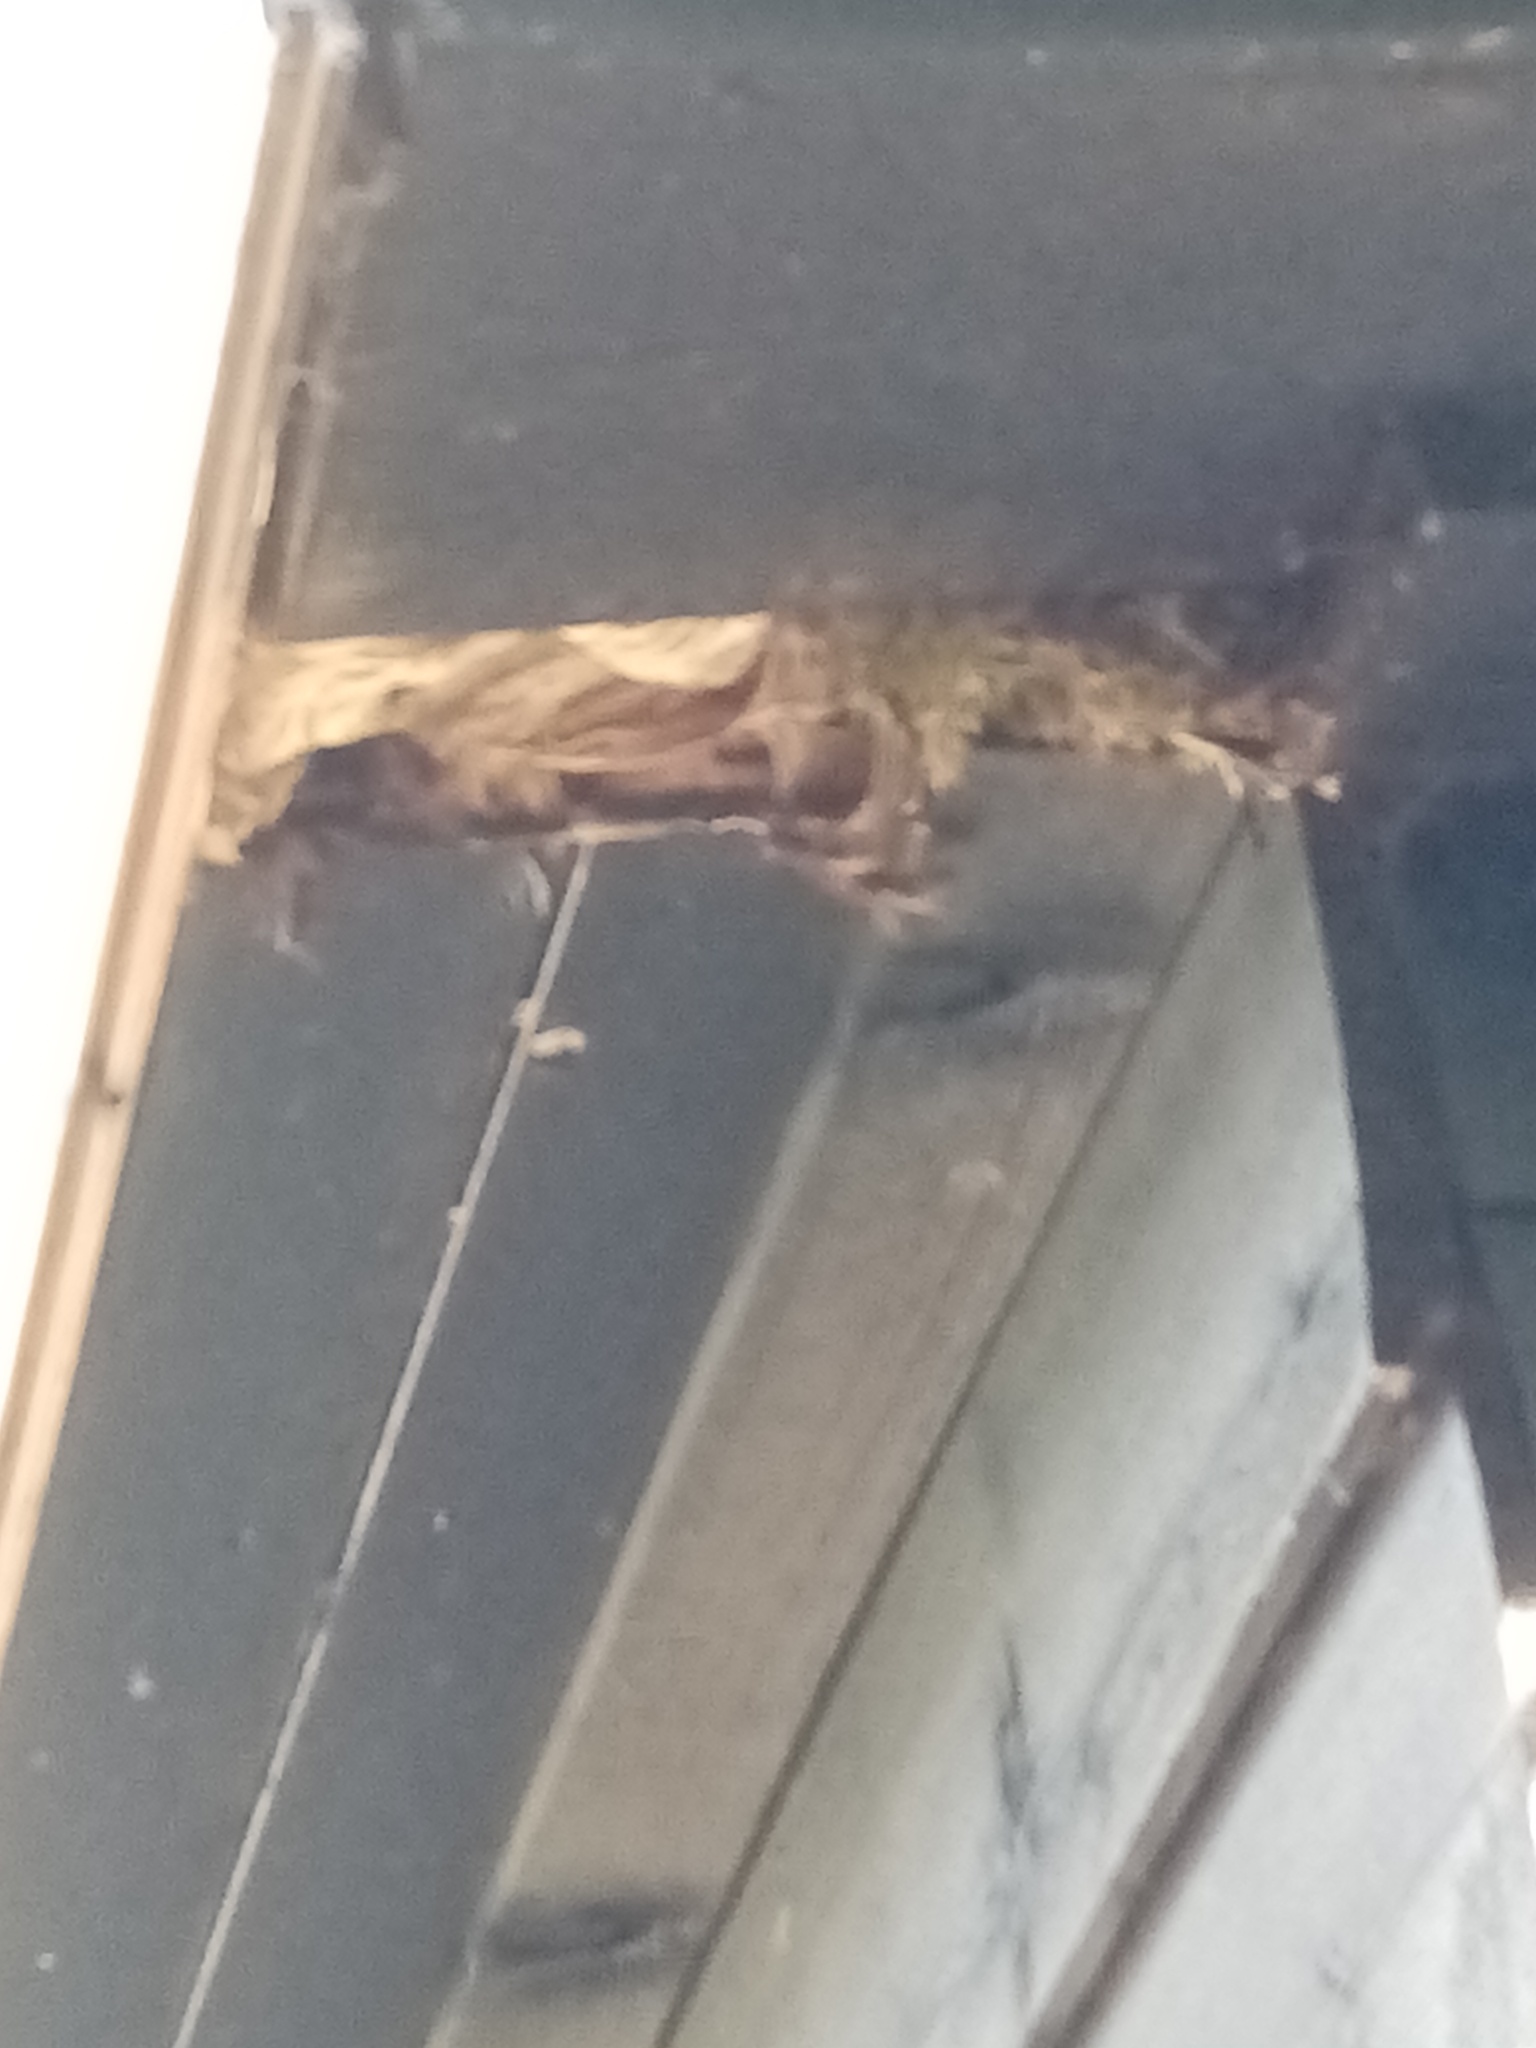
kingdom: Animalia
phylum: Arthropoda
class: Insecta
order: Hymenoptera
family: Vespidae
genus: Vespa
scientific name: Vespa crabro
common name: Hornet
